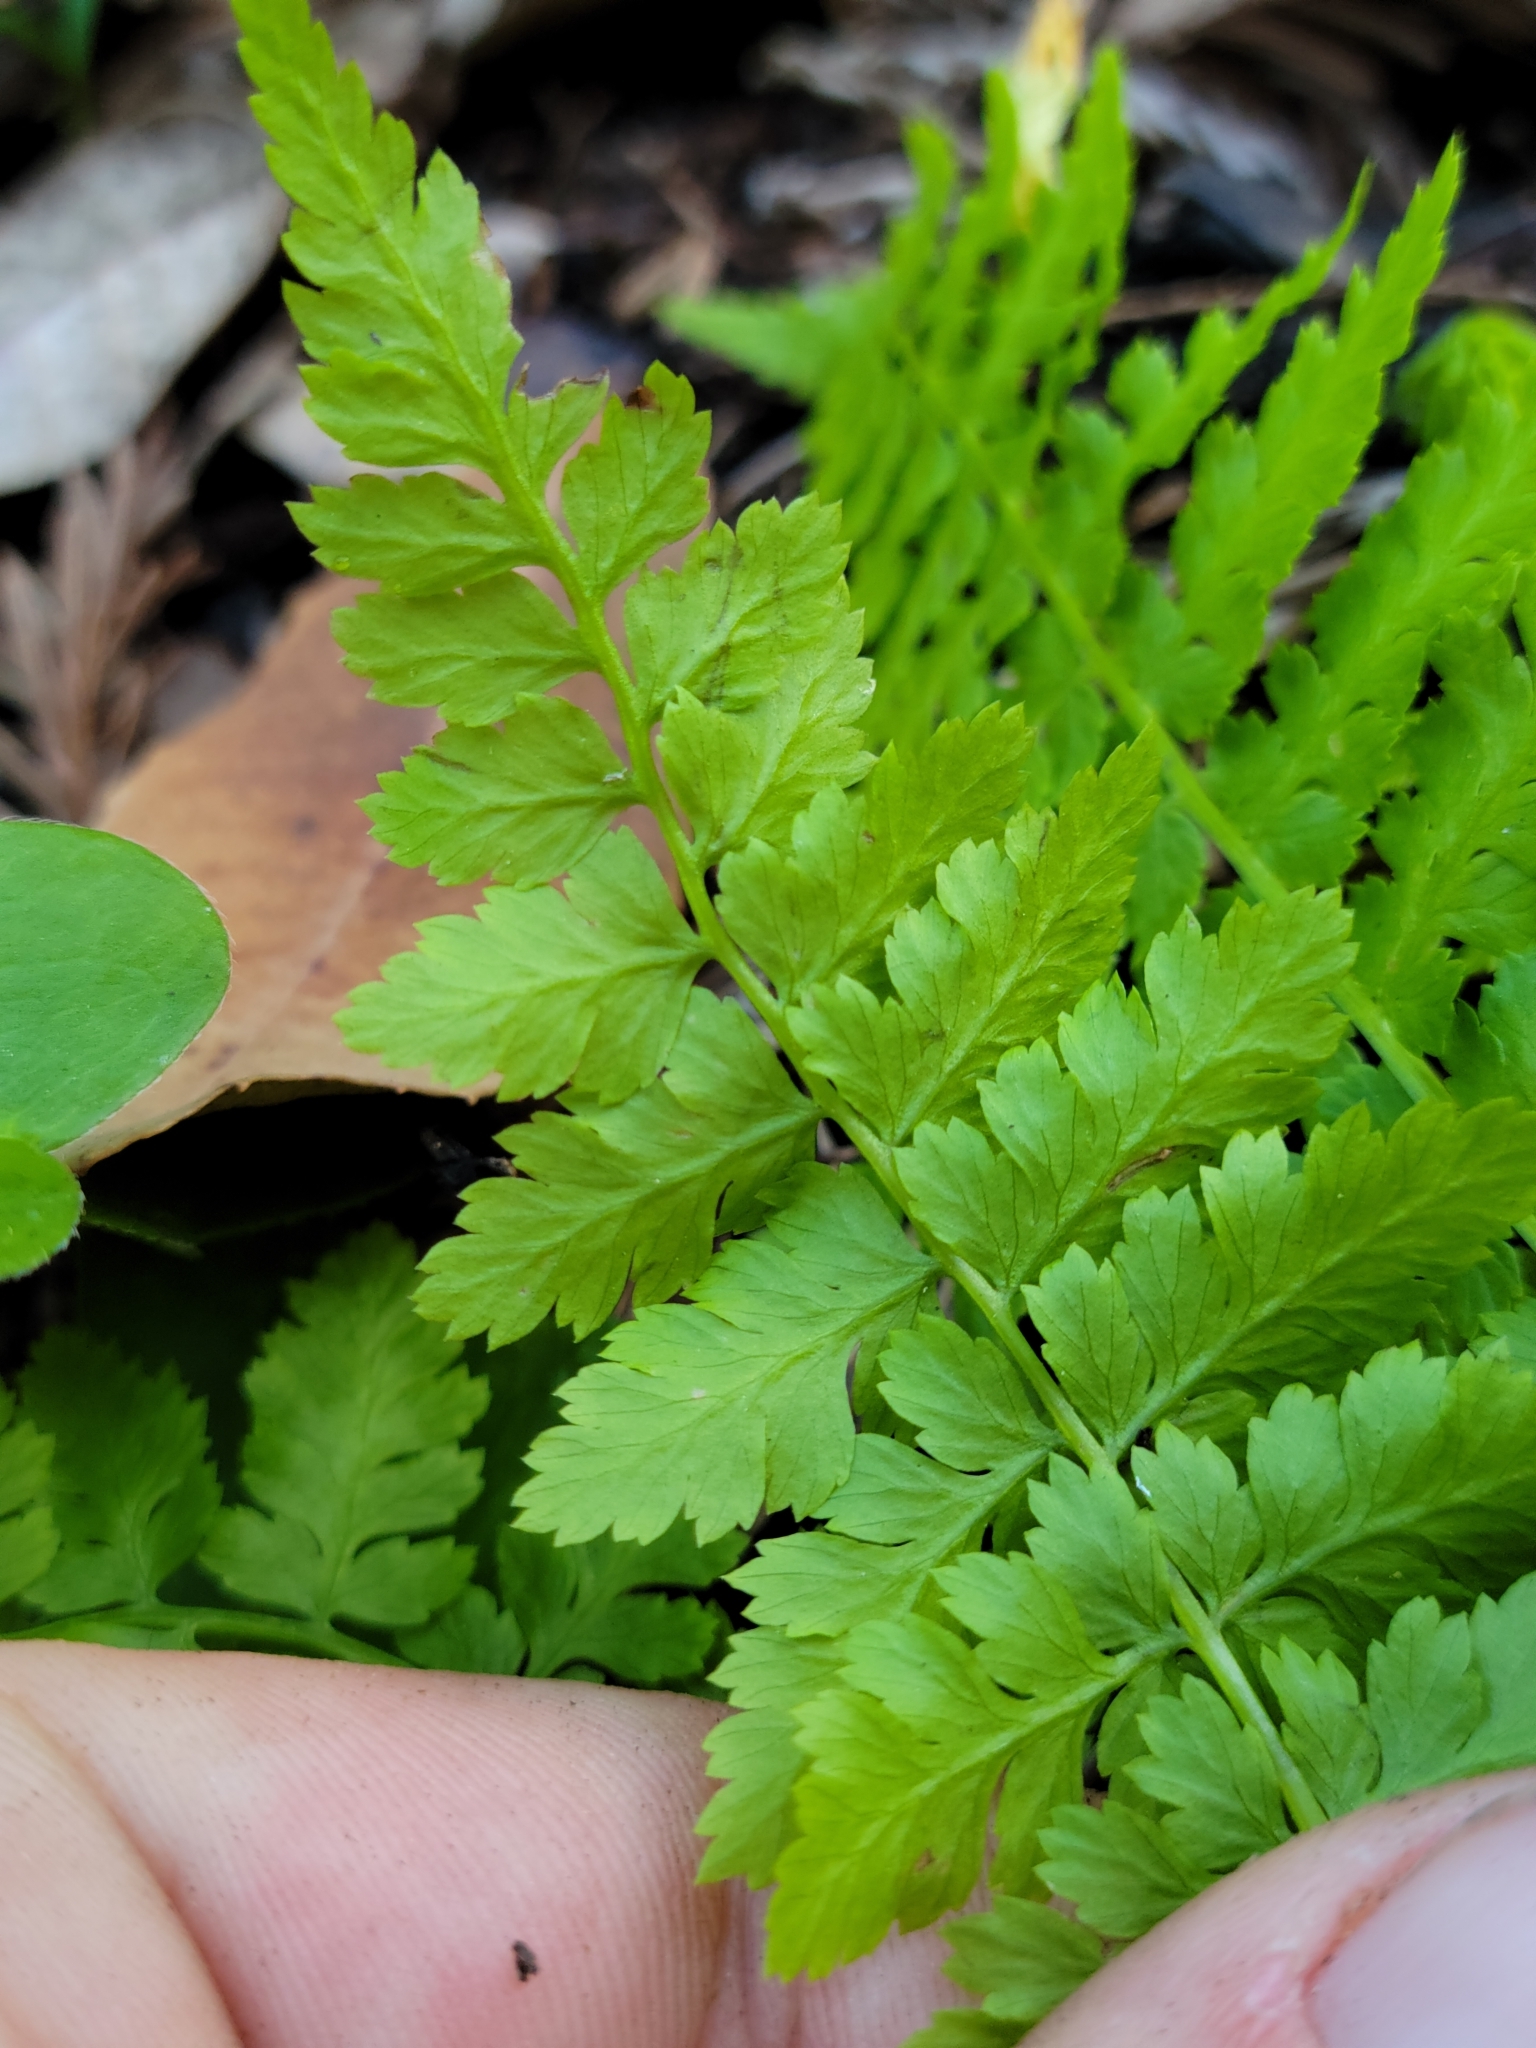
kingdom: Plantae
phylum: Tracheophyta
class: Polypodiopsida
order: Polypodiales
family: Athyriaceae
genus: Athyrium
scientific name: Athyrium cyclosorum
